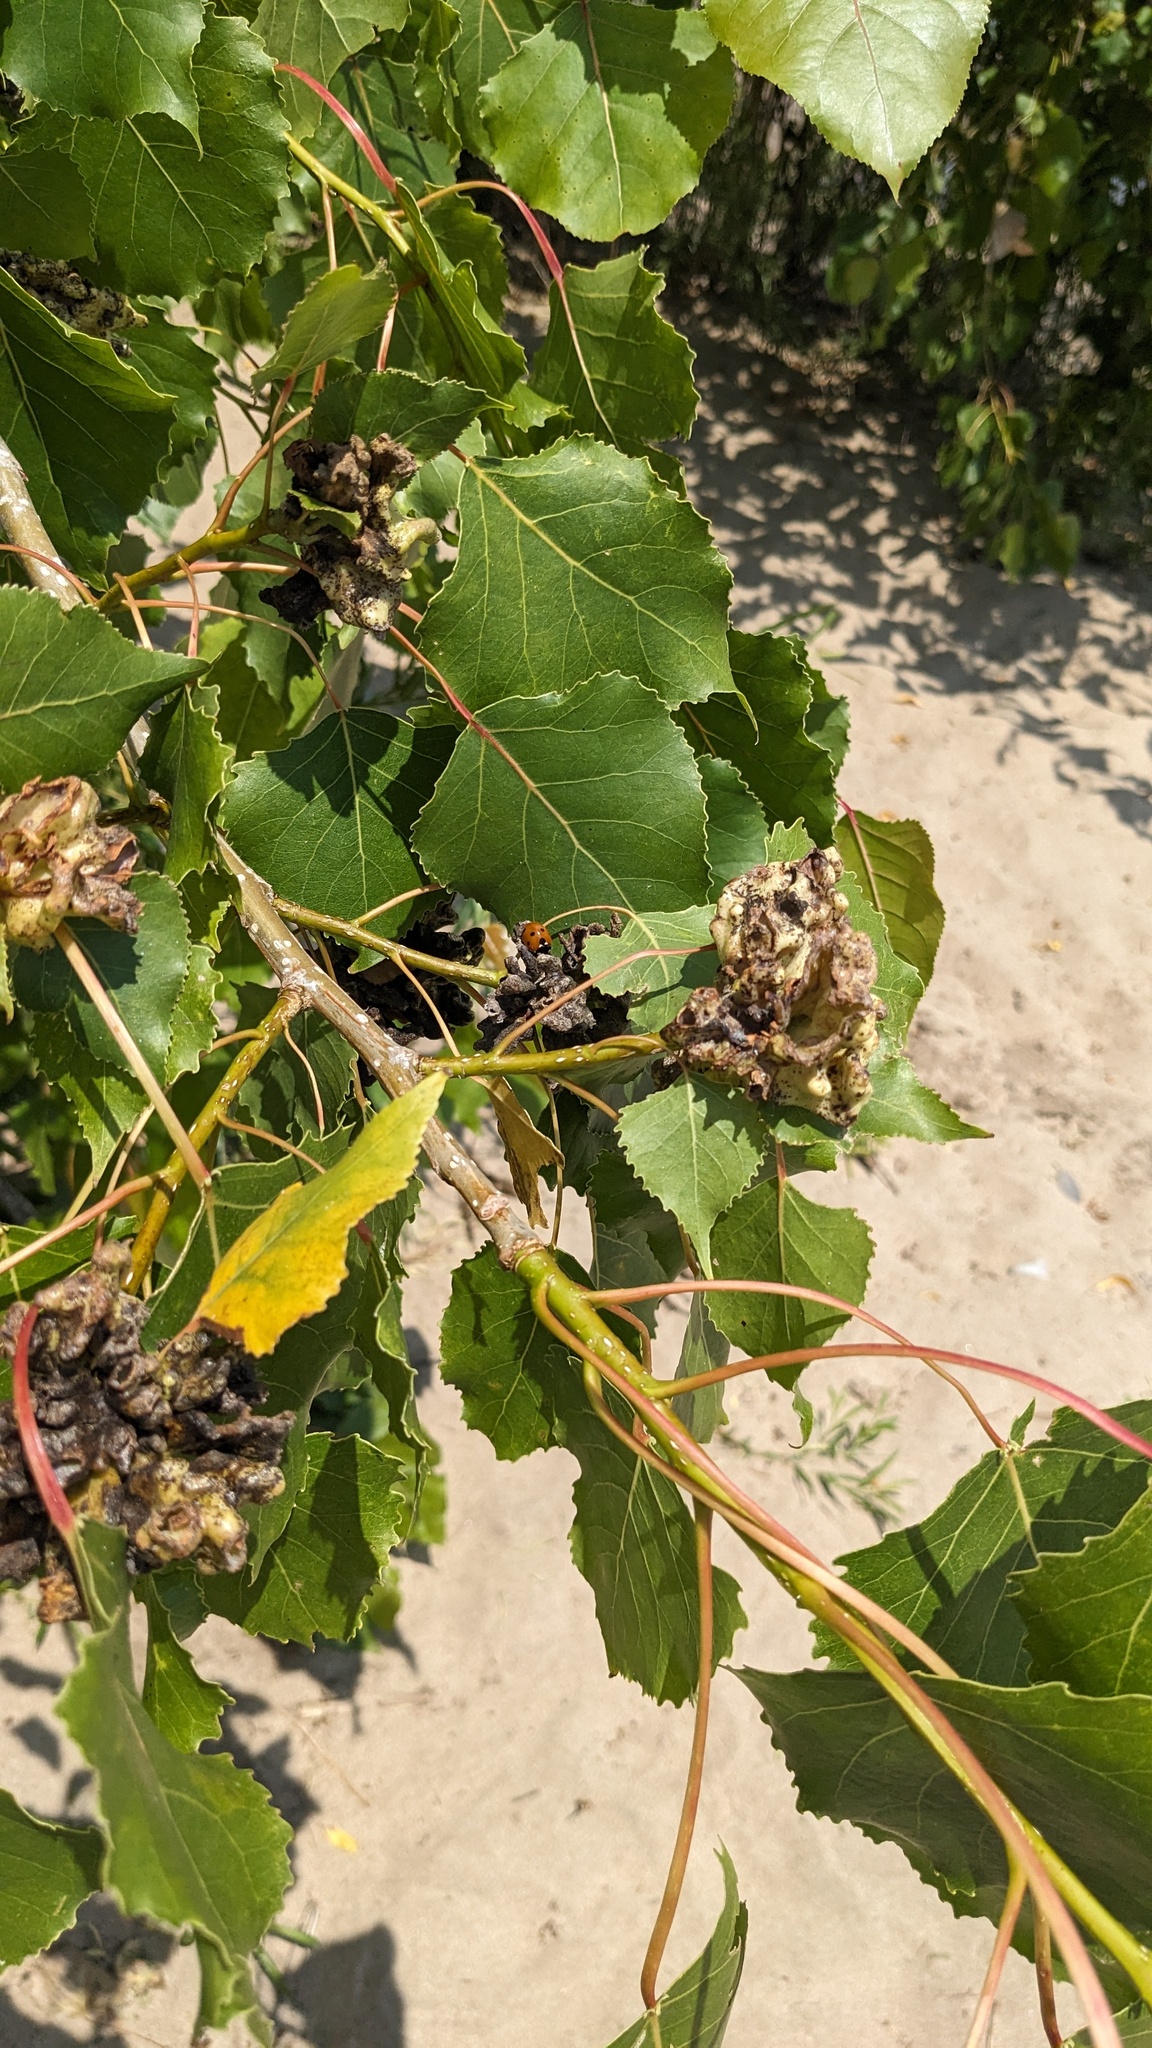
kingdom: Animalia
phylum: Arthropoda
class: Insecta
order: Hemiptera
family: Aphididae
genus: Mordwilkoja
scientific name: Mordwilkoja vagabunda
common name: Poplar vagabond aphid
